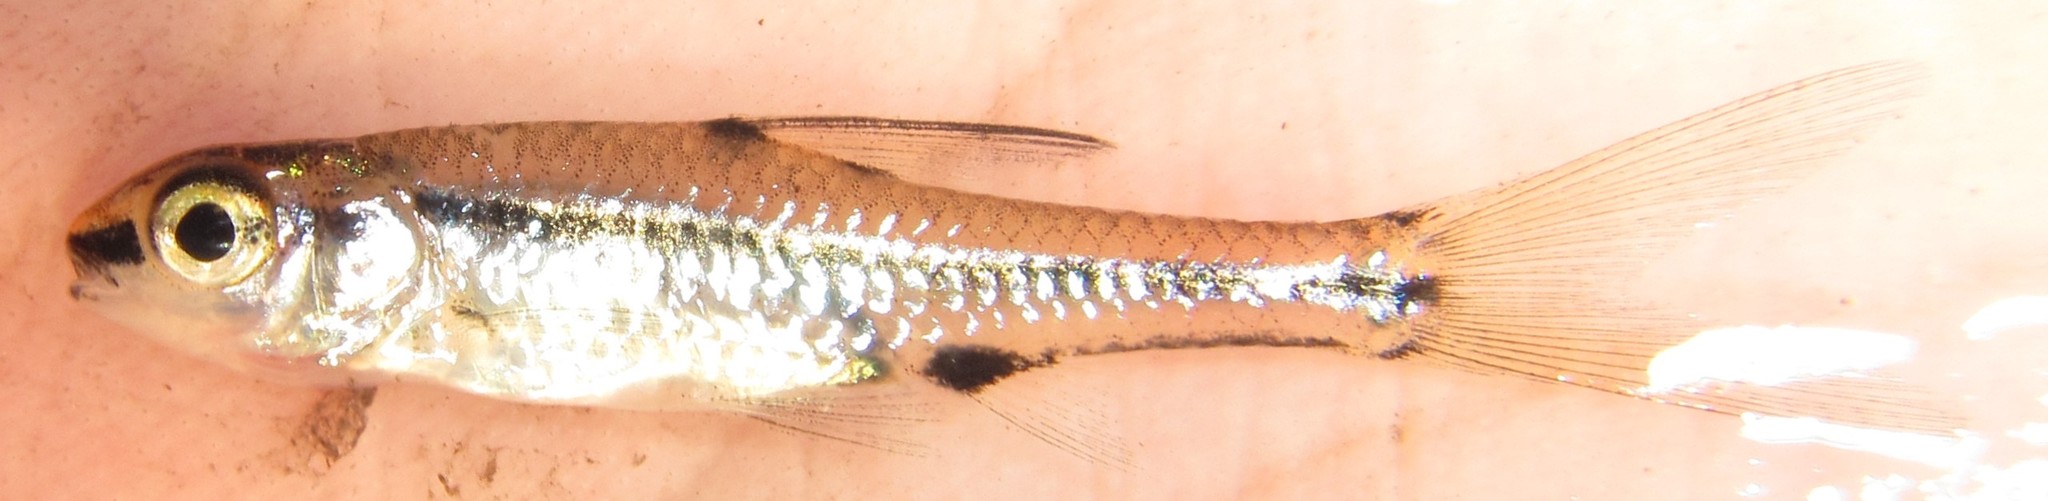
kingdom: Animalia
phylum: Chordata
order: Cypriniformes
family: Cyprinidae
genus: Enteromius
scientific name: Enteromius barnardi
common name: Blackback barb
